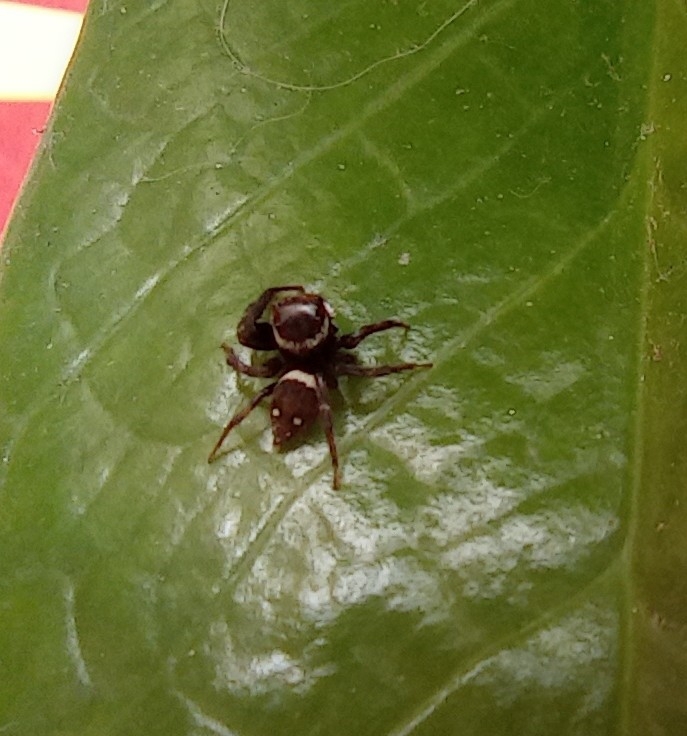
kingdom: Animalia
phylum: Arthropoda
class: Arachnida
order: Araneae
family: Salticidae
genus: Hasarius
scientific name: Hasarius adansoni
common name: Jumping spider
